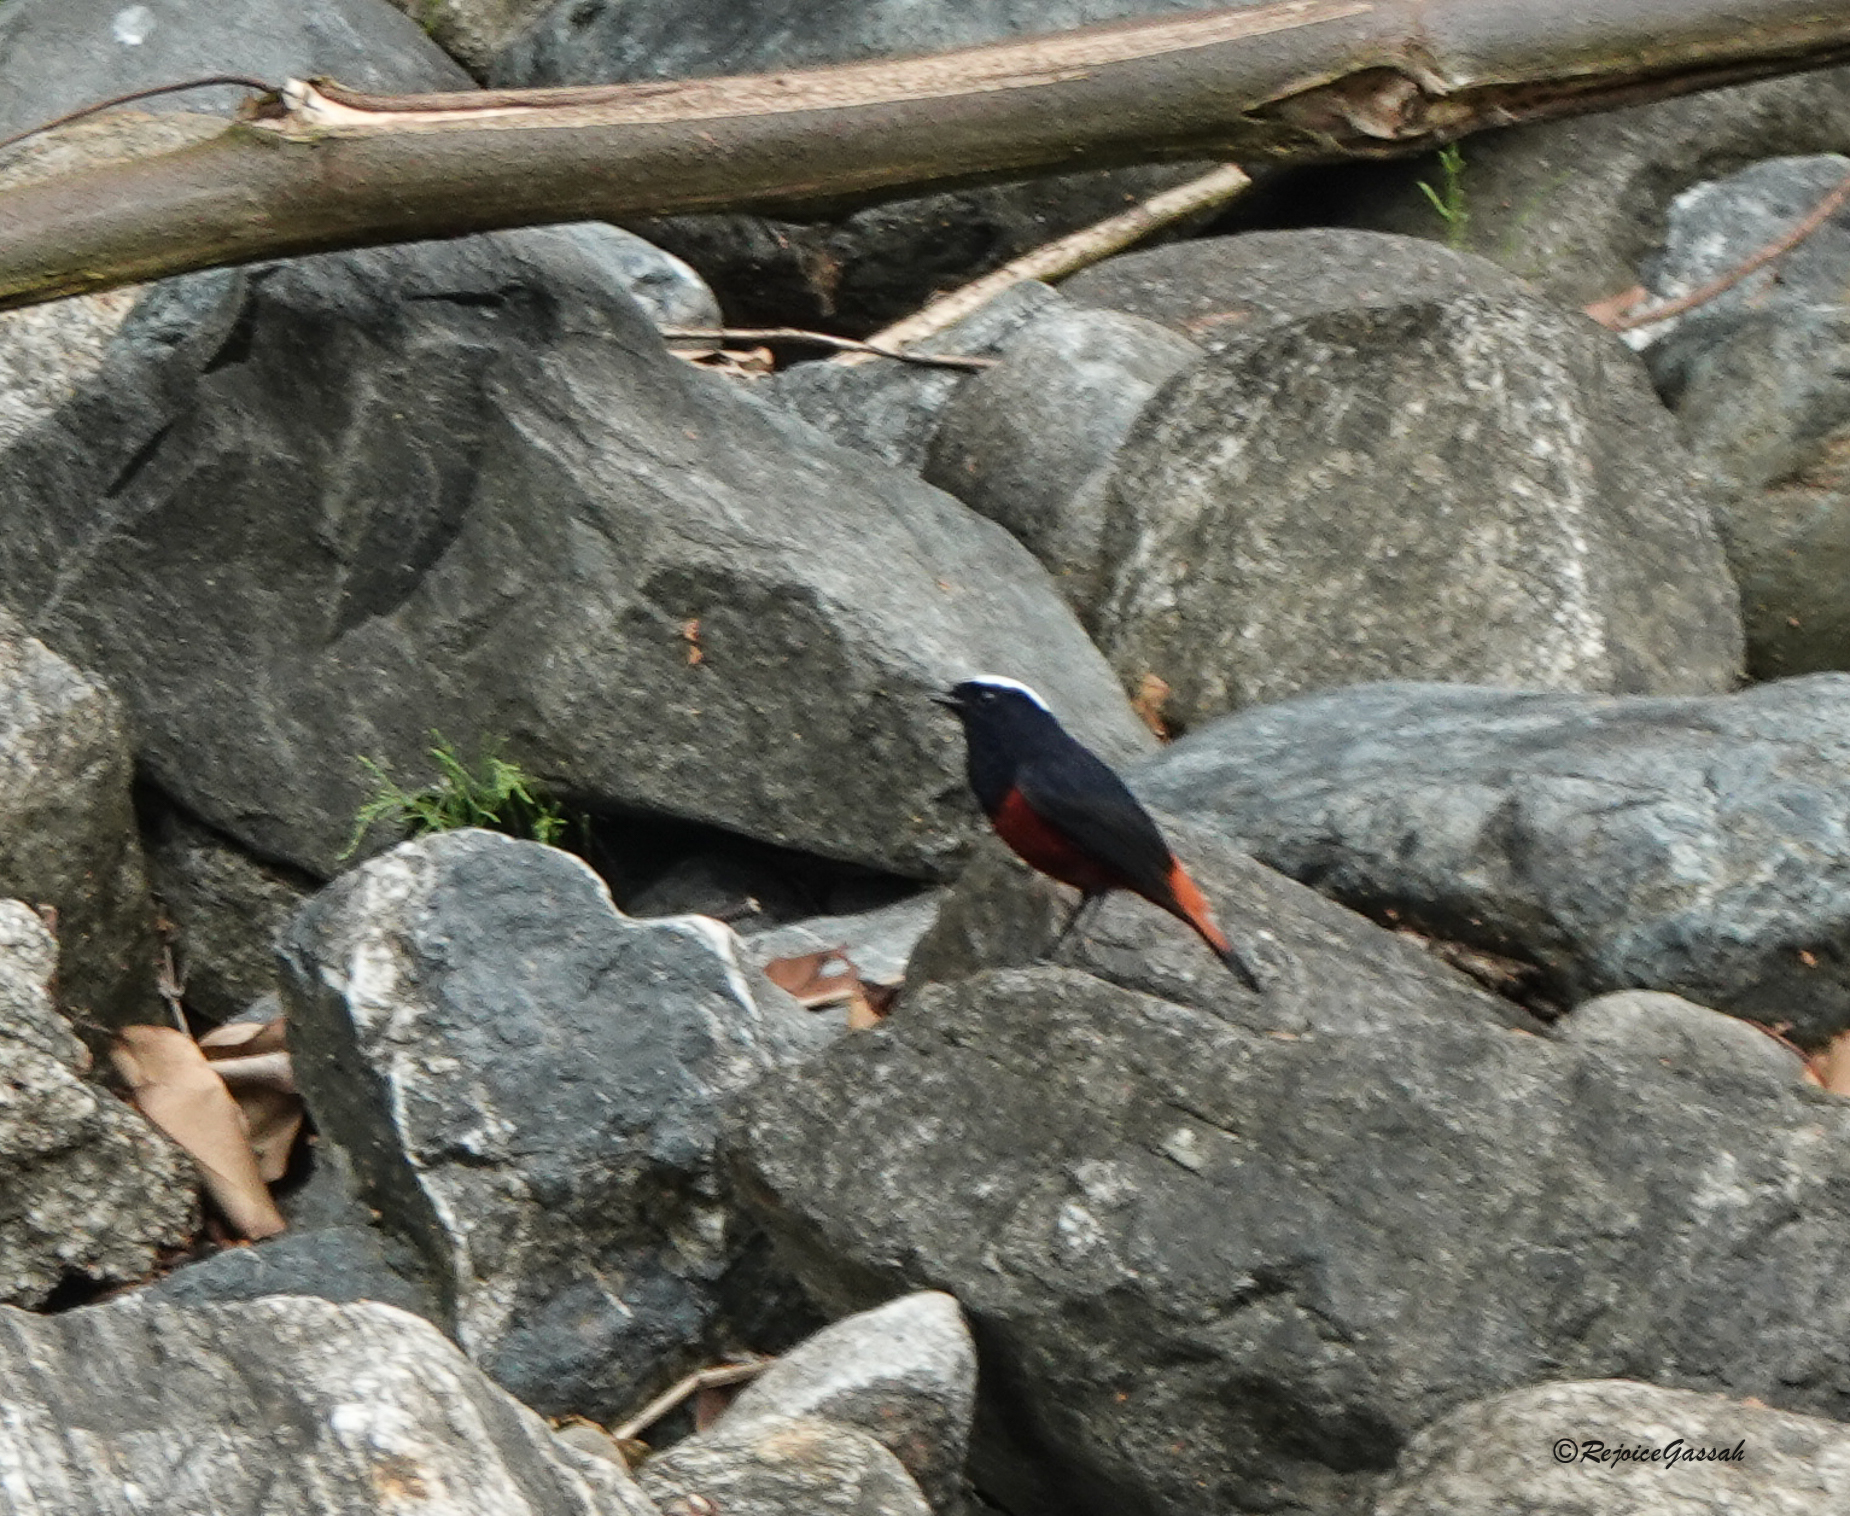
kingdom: Animalia
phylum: Chordata
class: Aves
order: Passeriformes
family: Muscicapidae
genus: Chaimarrornis
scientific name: Chaimarrornis leucocephalus
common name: White-capped redstart
